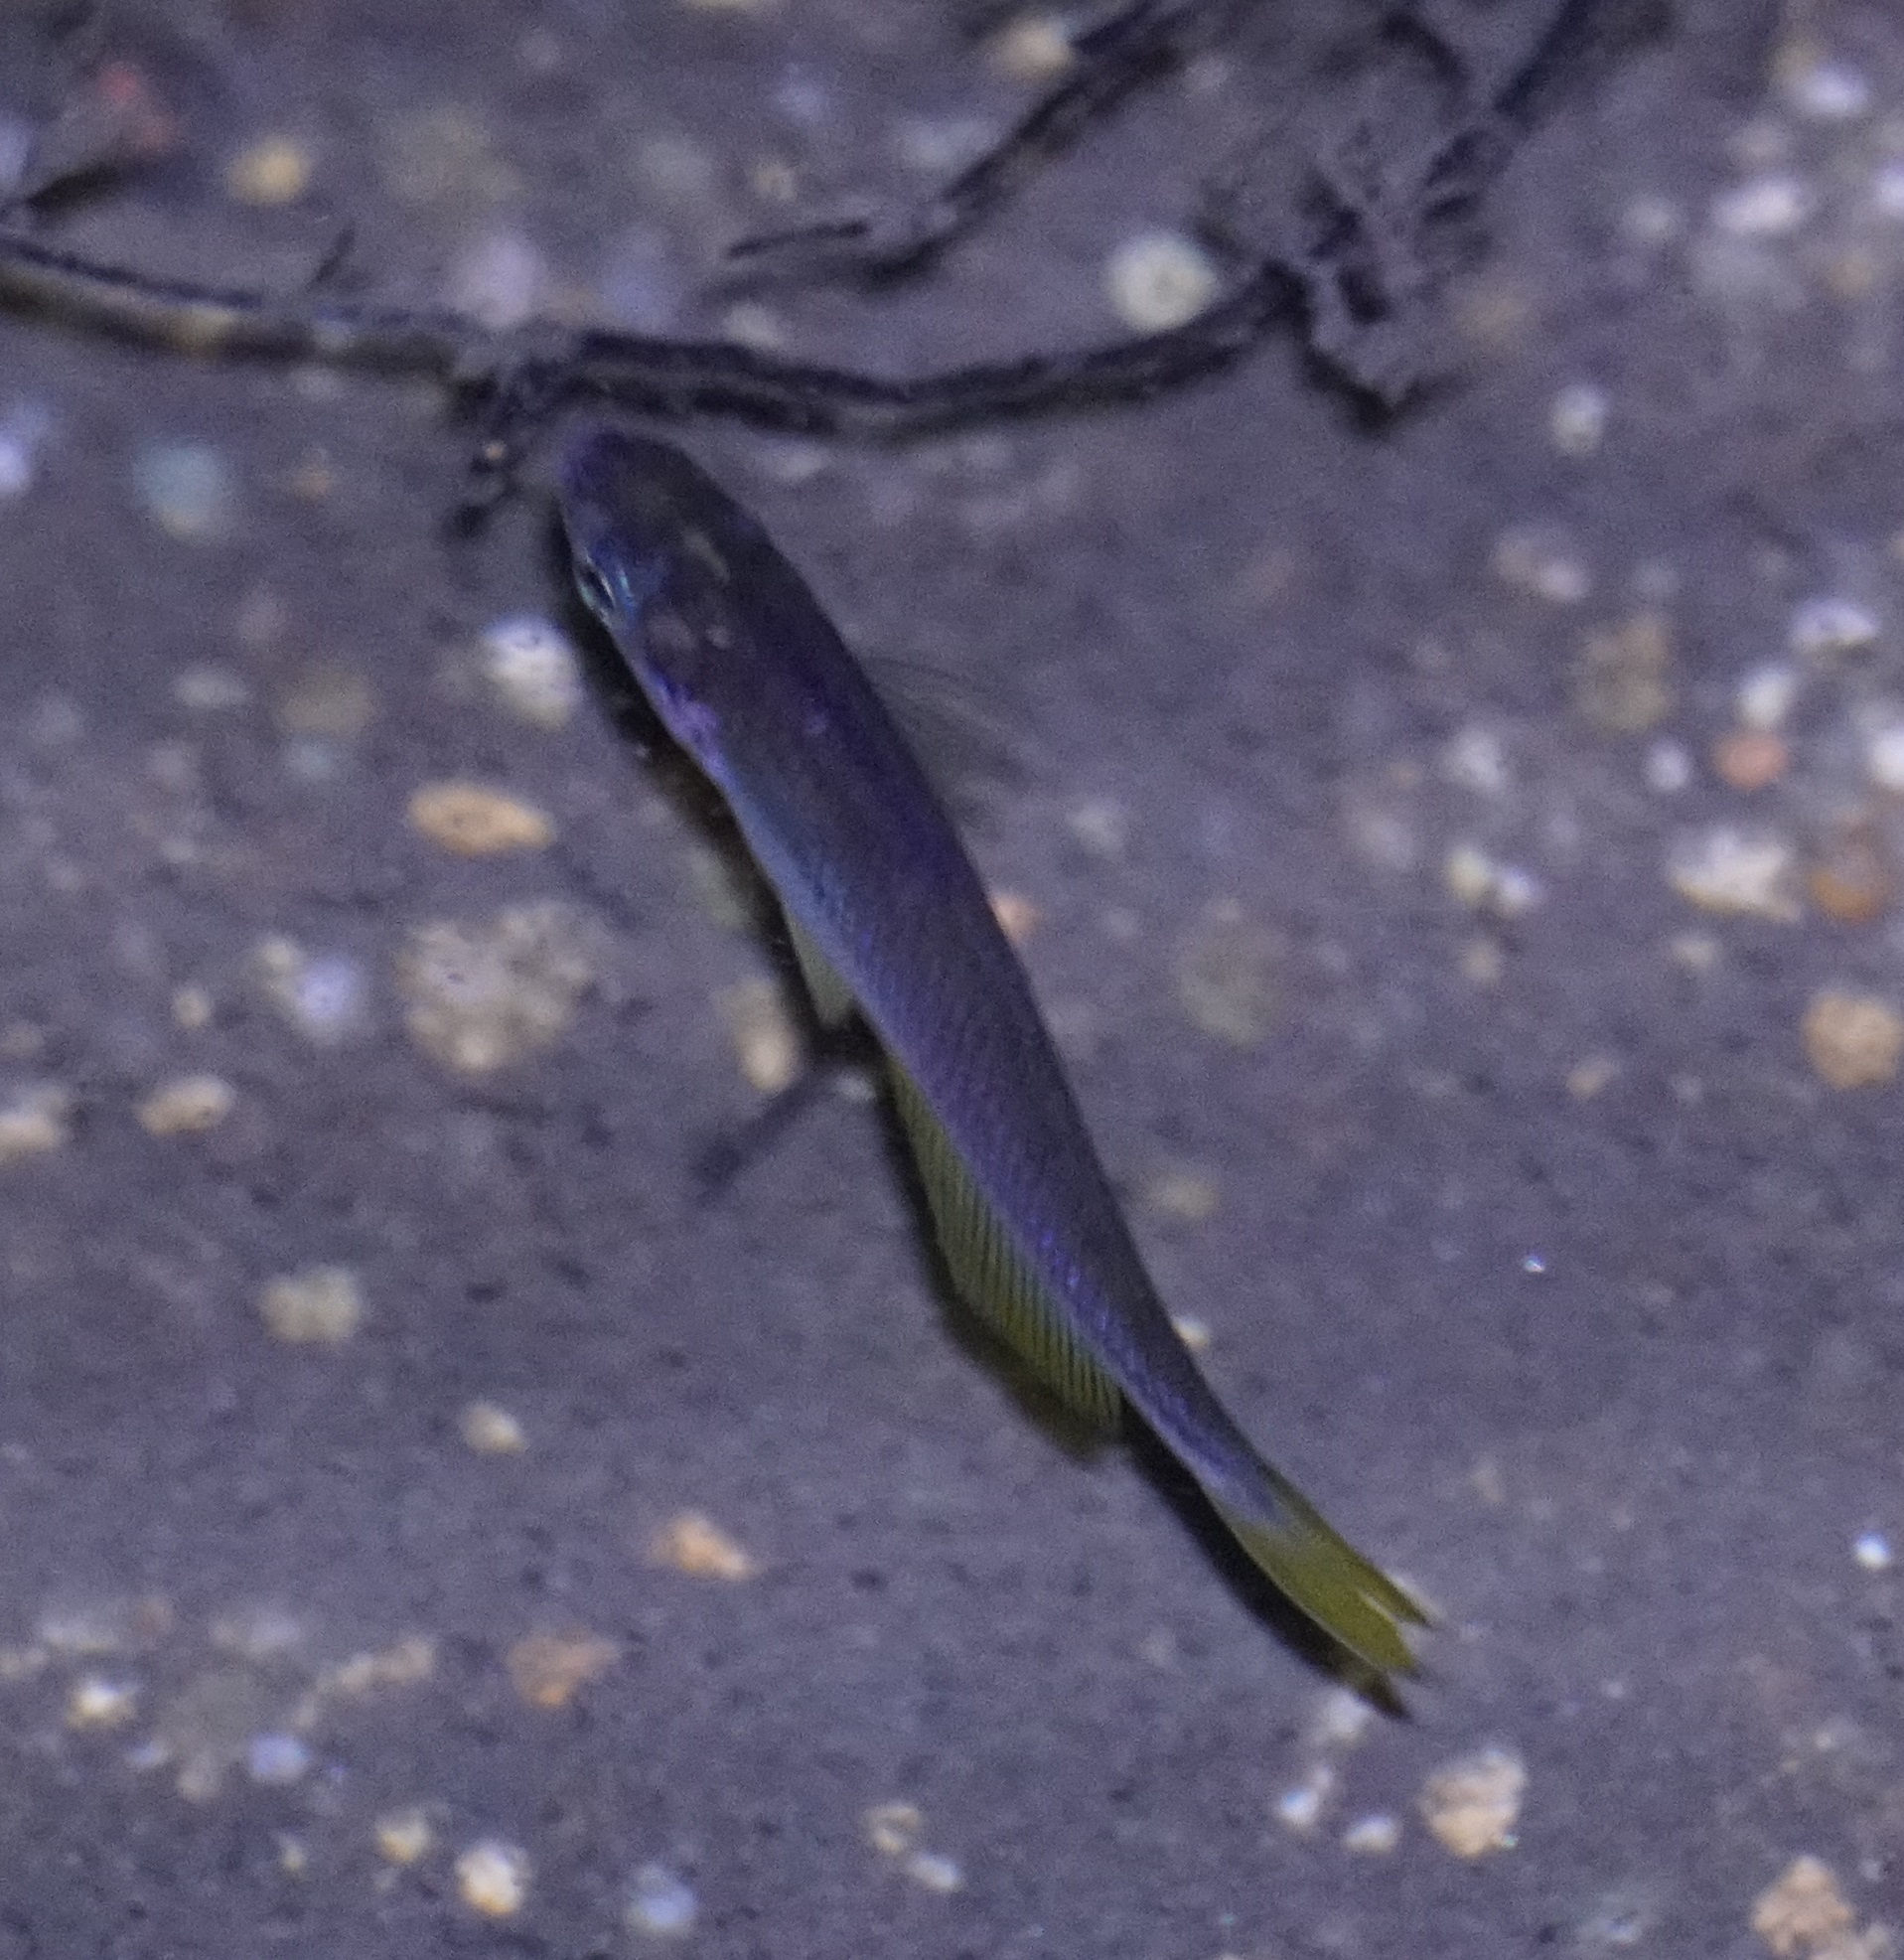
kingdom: Animalia
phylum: Chordata
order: Atheriniformes
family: Melanotaeniidae
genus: Cairnsichthys
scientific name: Cairnsichthys rhombosomoides
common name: Cairns rainbowfish
